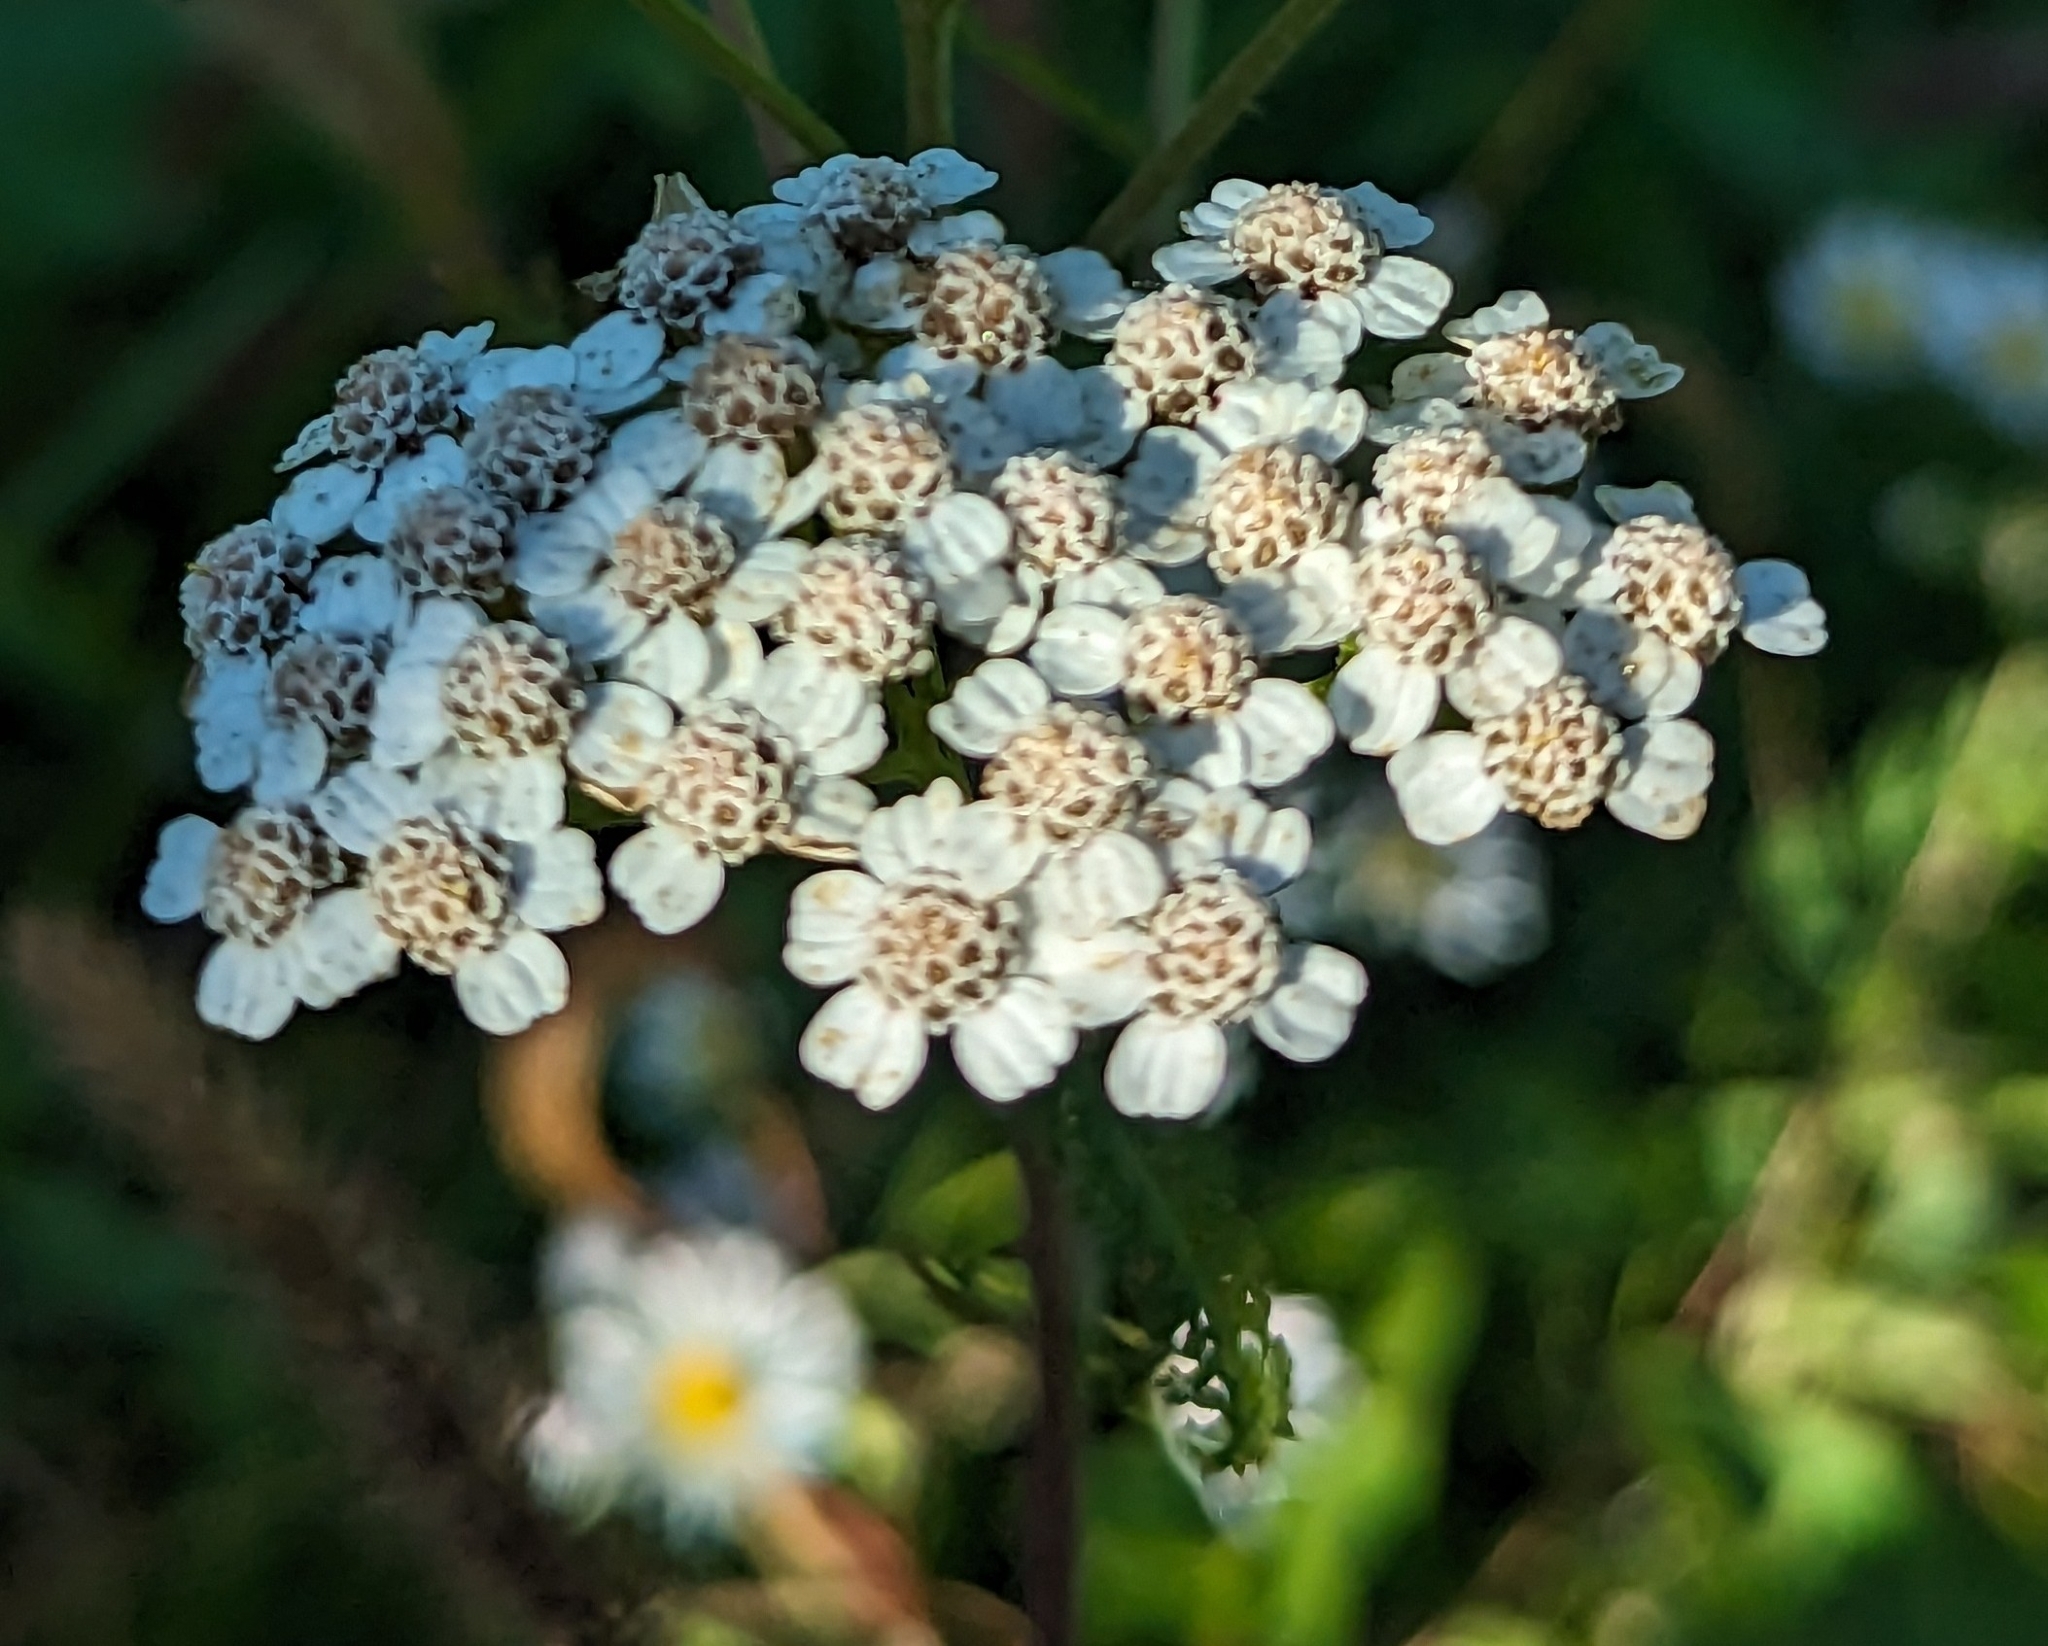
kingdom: Plantae
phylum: Tracheophyta
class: Magnoliopsida
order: Asterales
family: Asteraceae
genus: Achillea
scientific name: Achillea millefolium
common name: Yarrow
